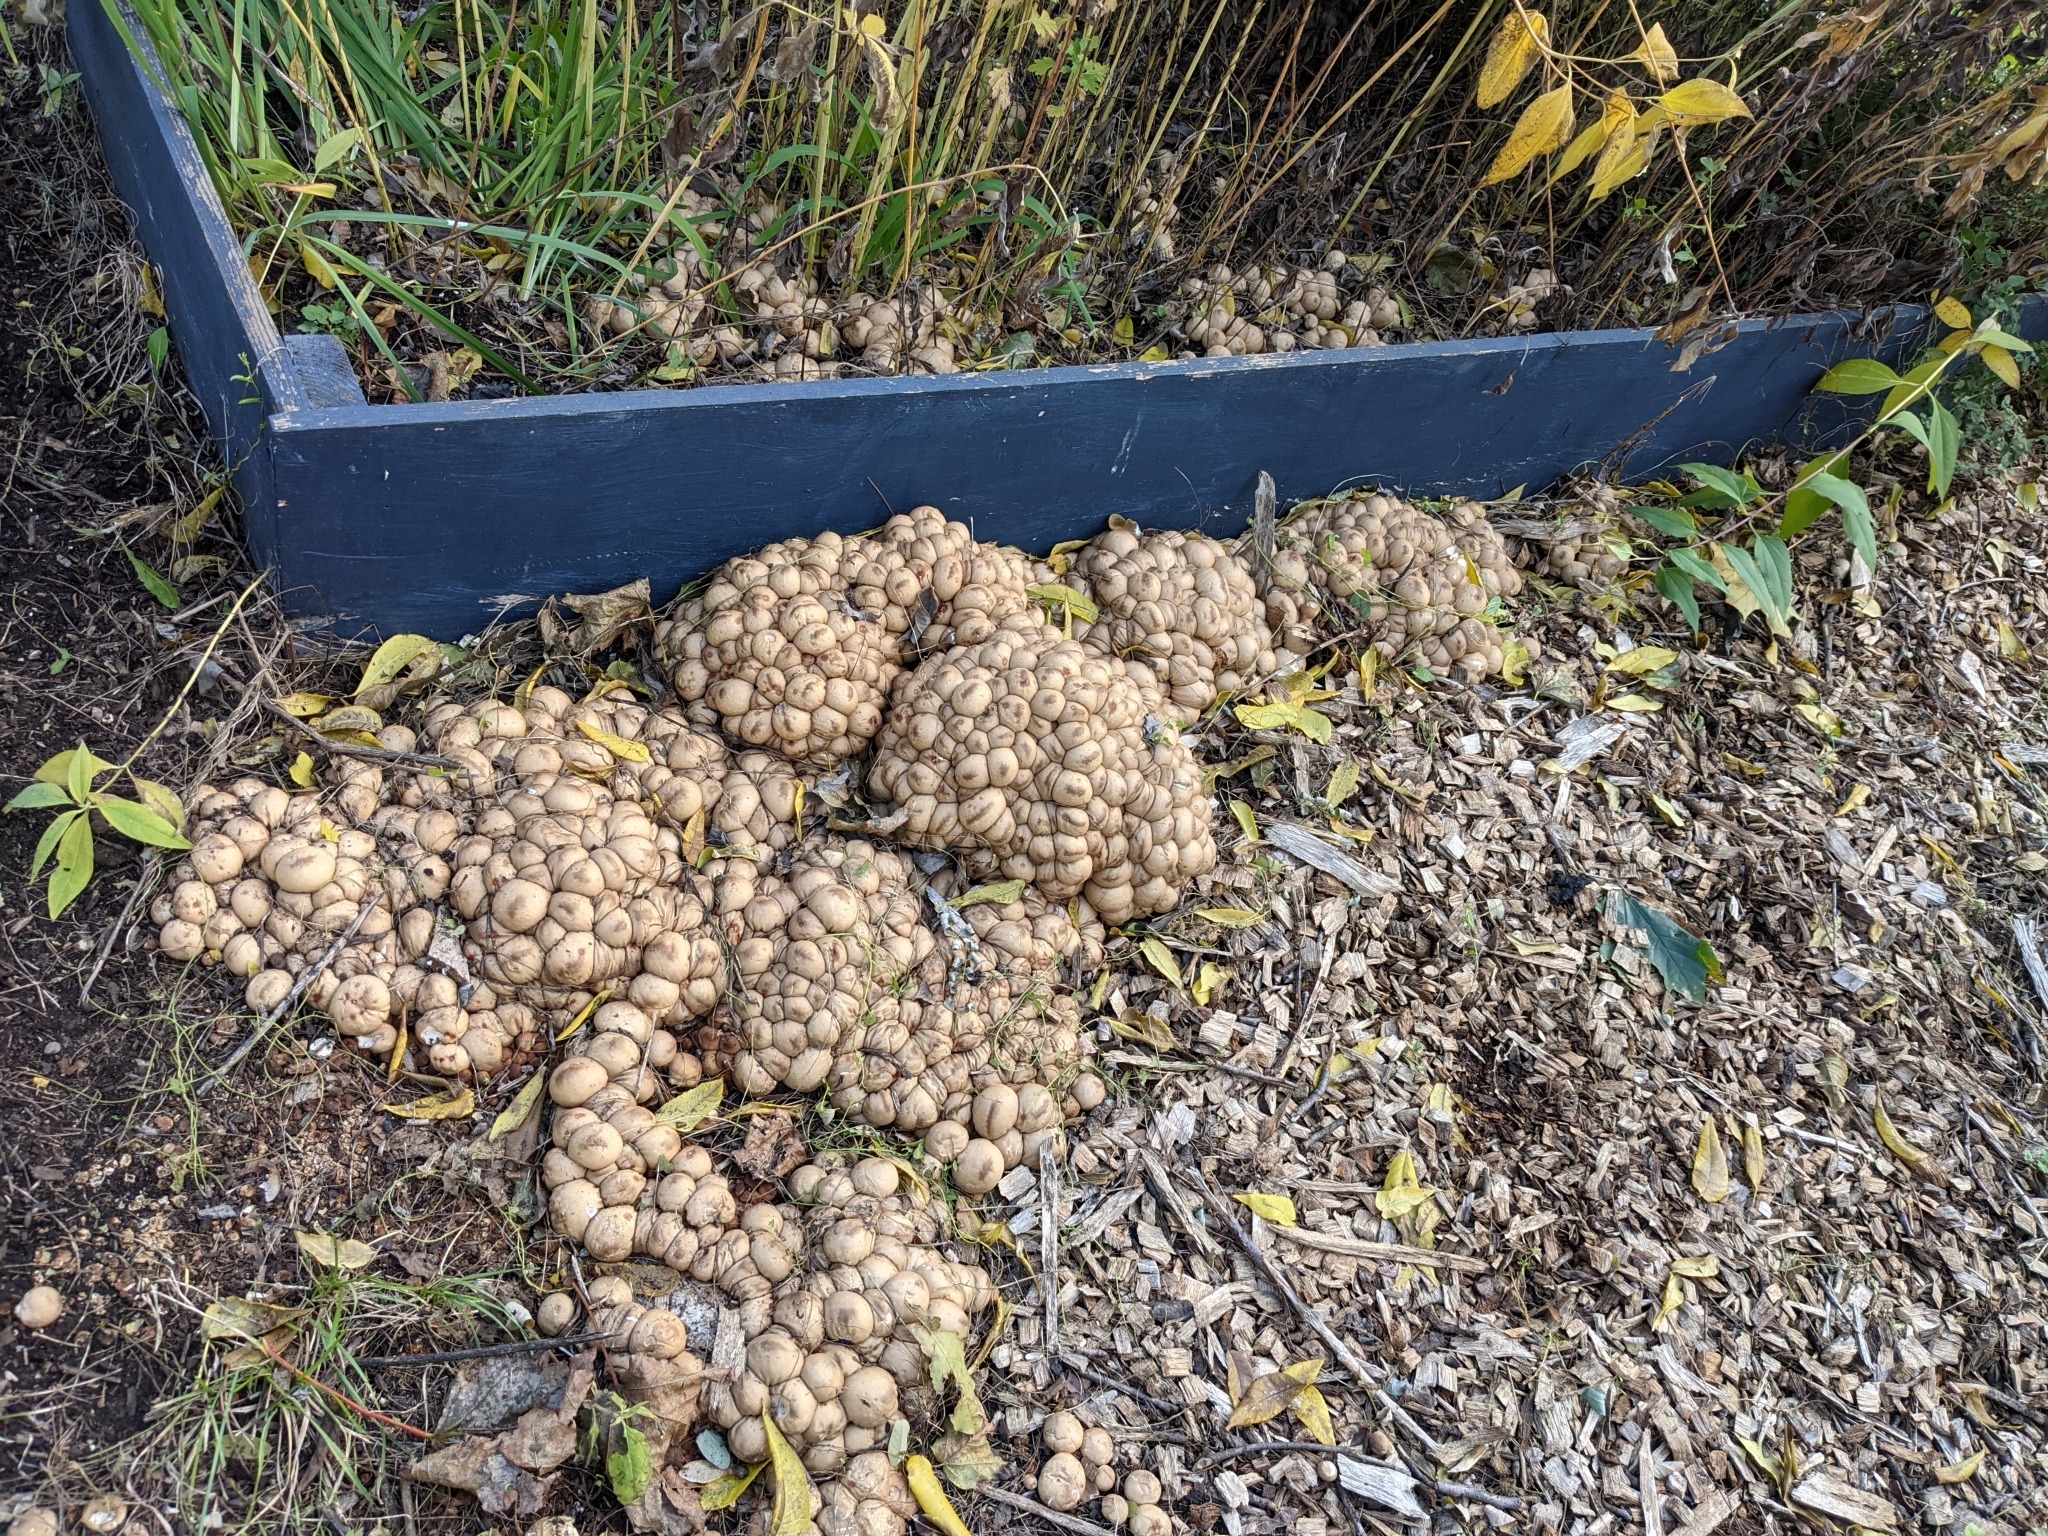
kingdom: Fungi
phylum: Basidiomycota
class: Agaricomycetes
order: Agaricales
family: Lycoperdaceae
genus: Apioperdon
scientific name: Apioperdon pyriforme
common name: Pear-shaped puffball
